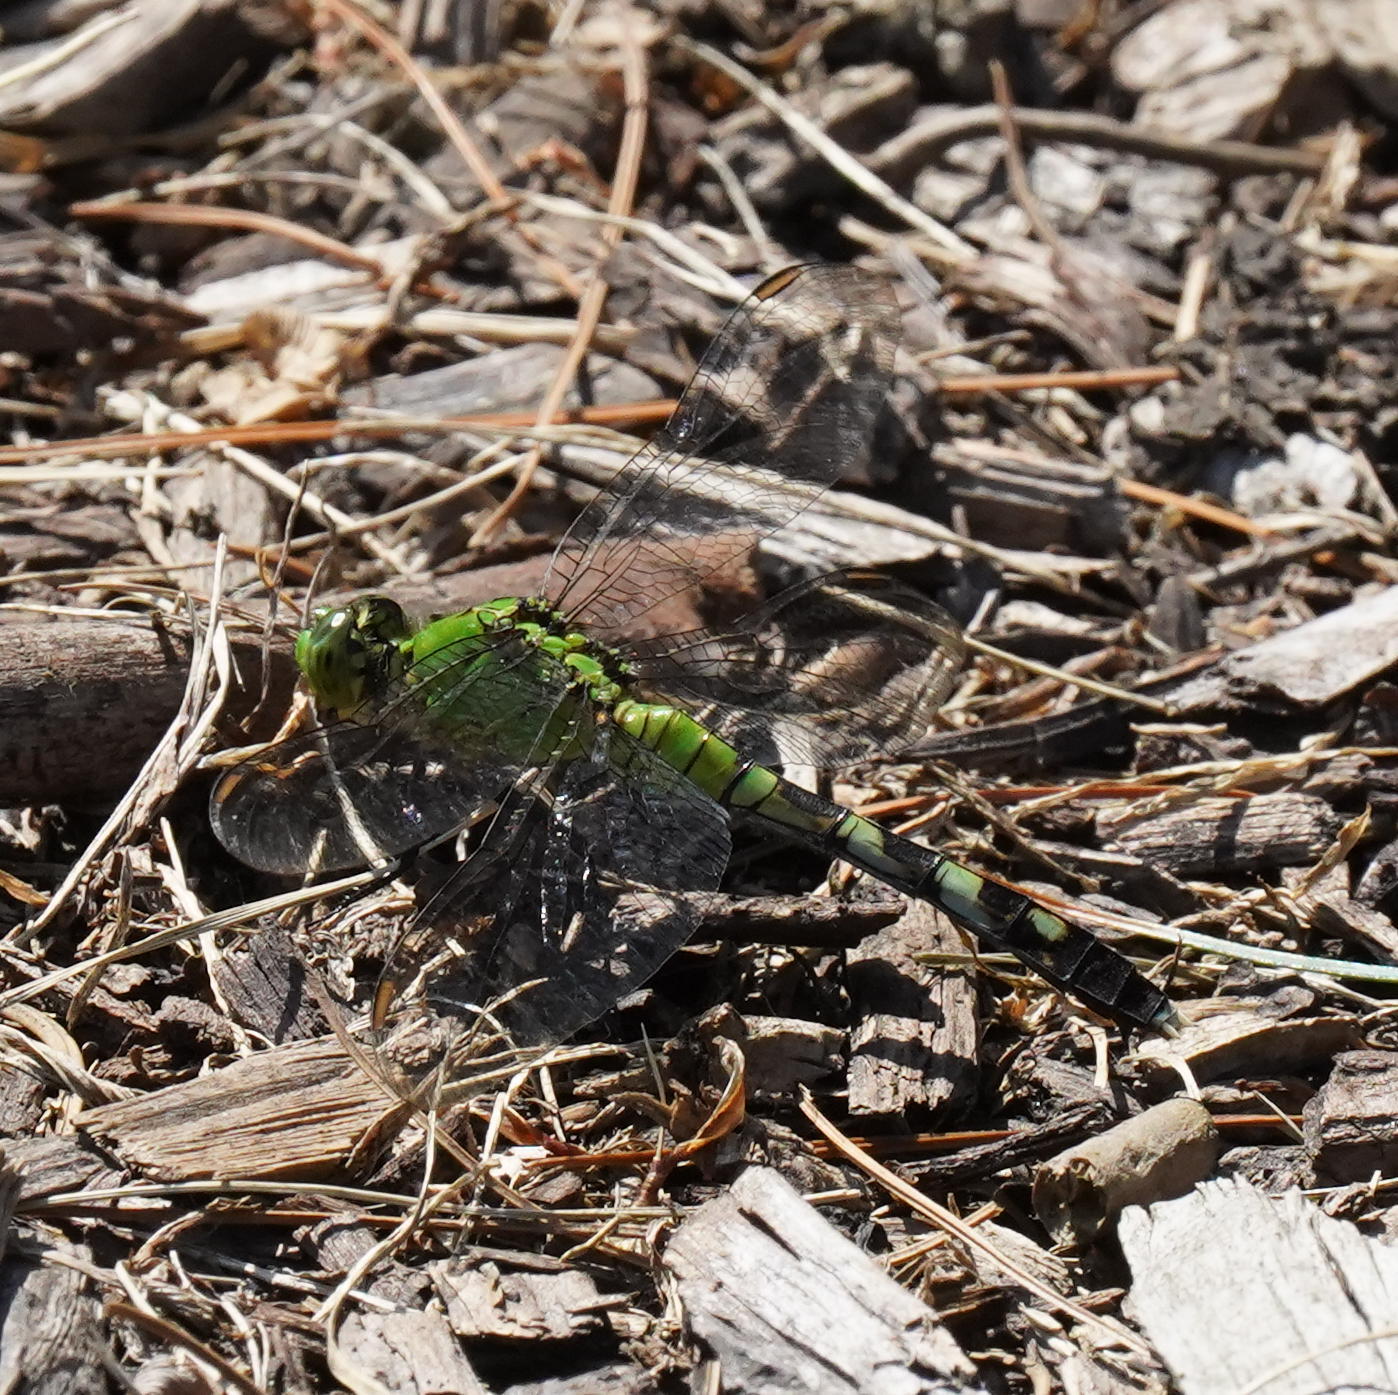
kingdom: Animalia
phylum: Arthropoda
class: Insecta
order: Odonata
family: Libellulidae
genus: Erythemis
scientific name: Erythemis simplicicollis
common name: Eastern pondhawk
